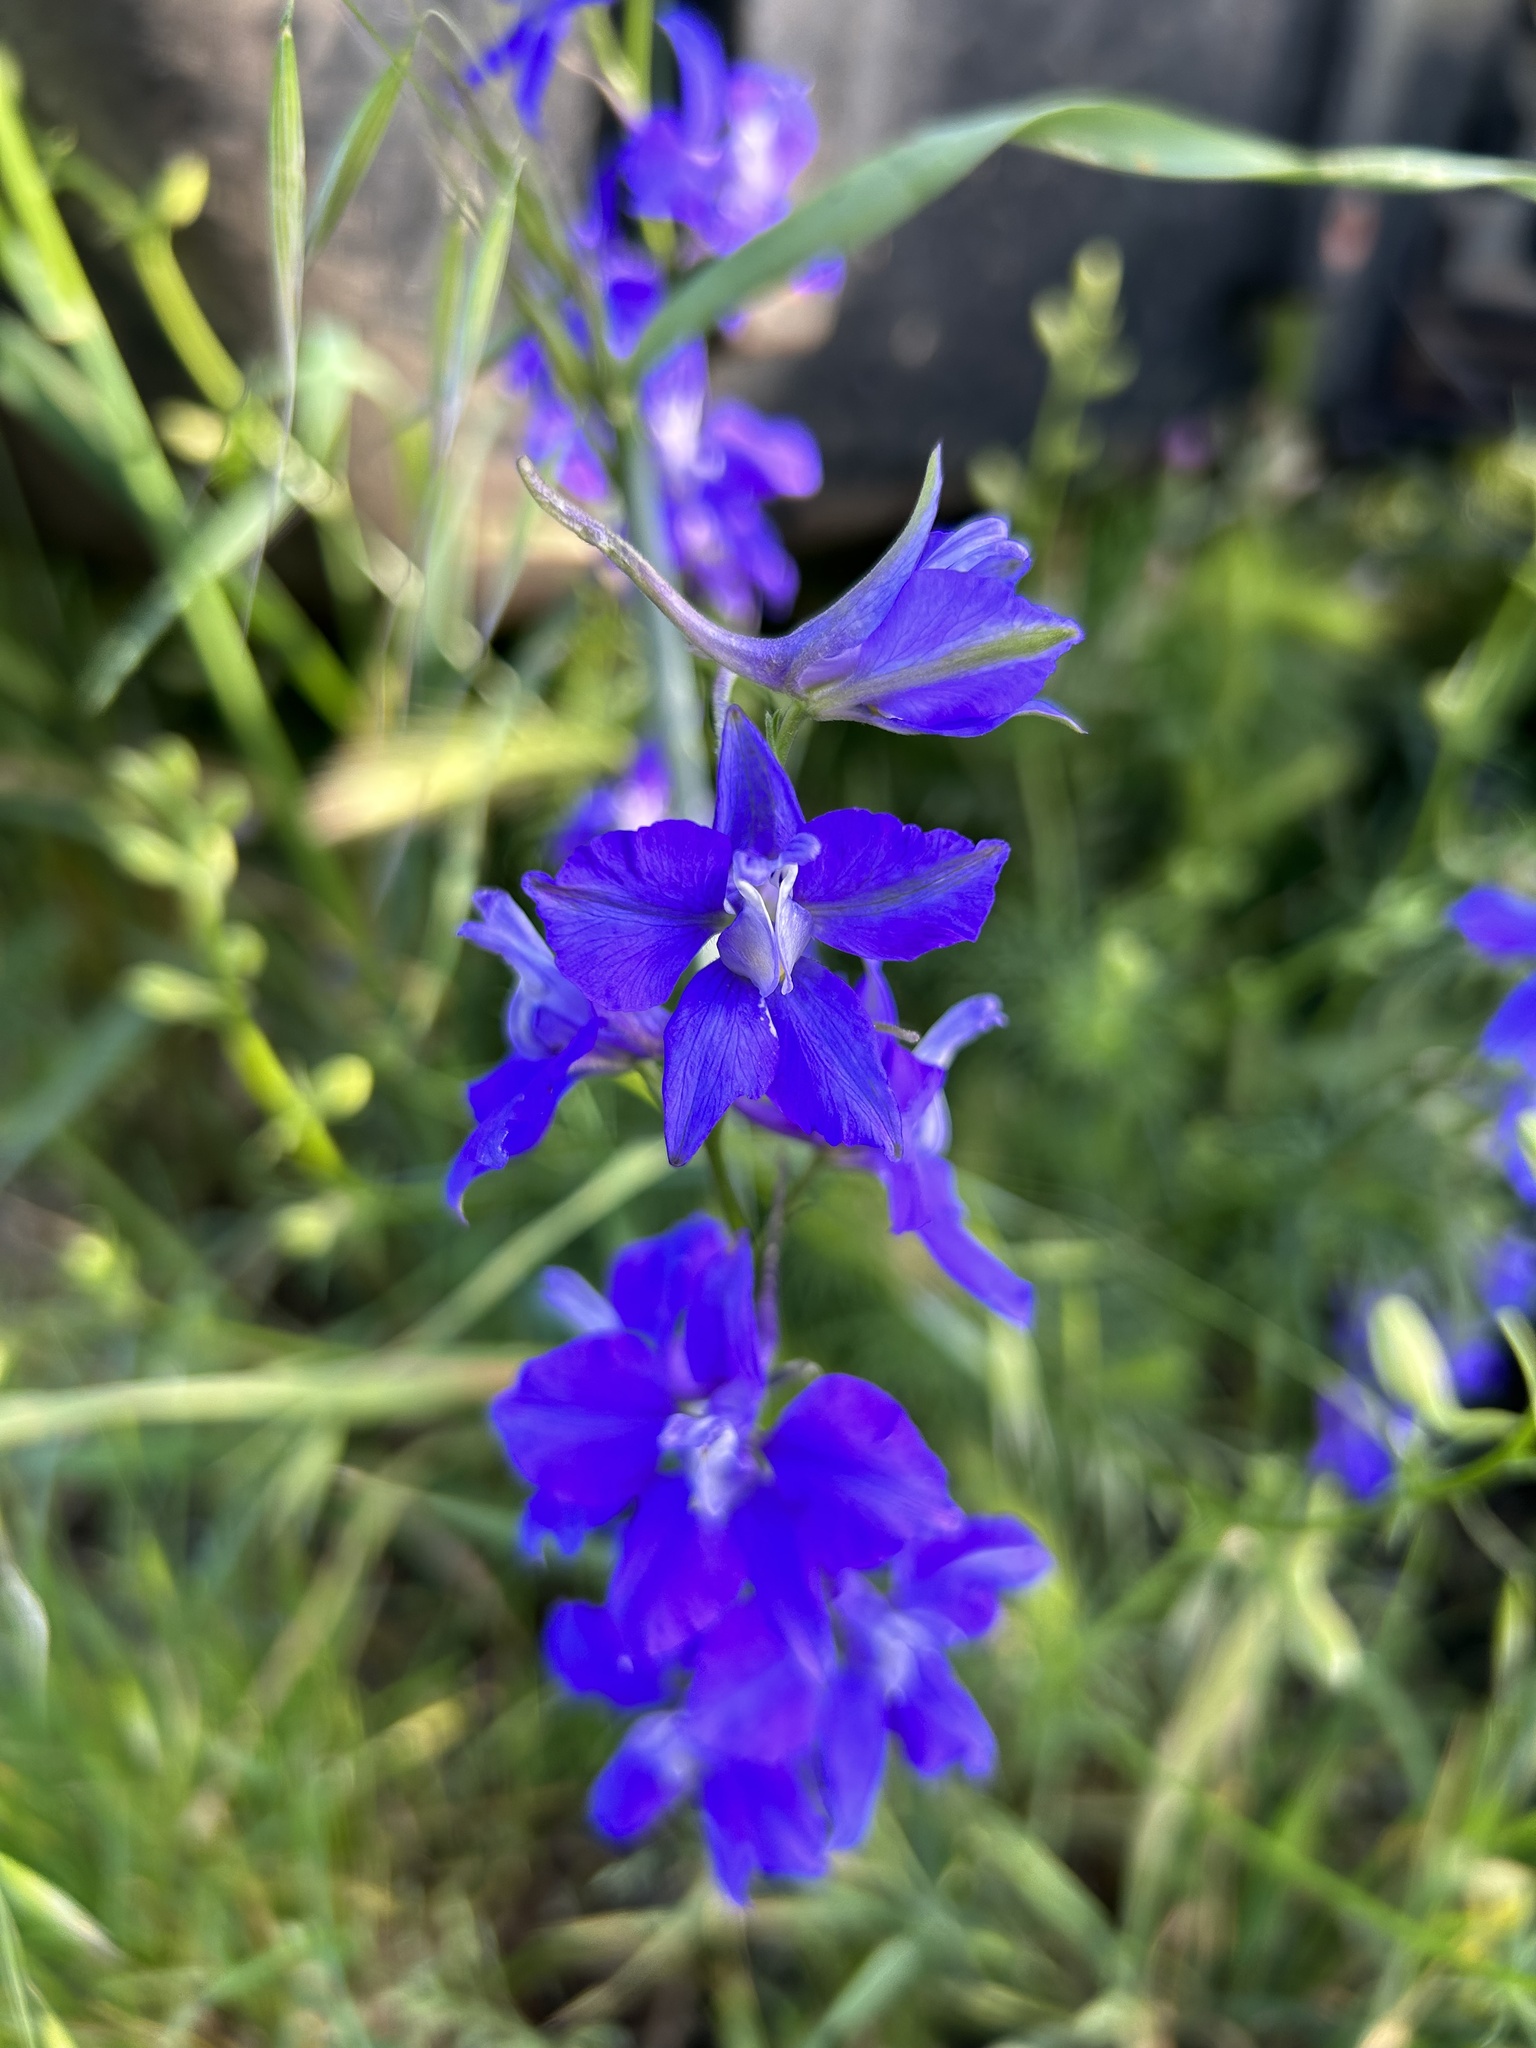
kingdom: Plantae
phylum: Tracheophyta
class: Magnoliopsida
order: Ranunculales
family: Ranunculaceae
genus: Delphinium
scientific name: Delphinium ajacis
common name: Doubtful knight's-spur
